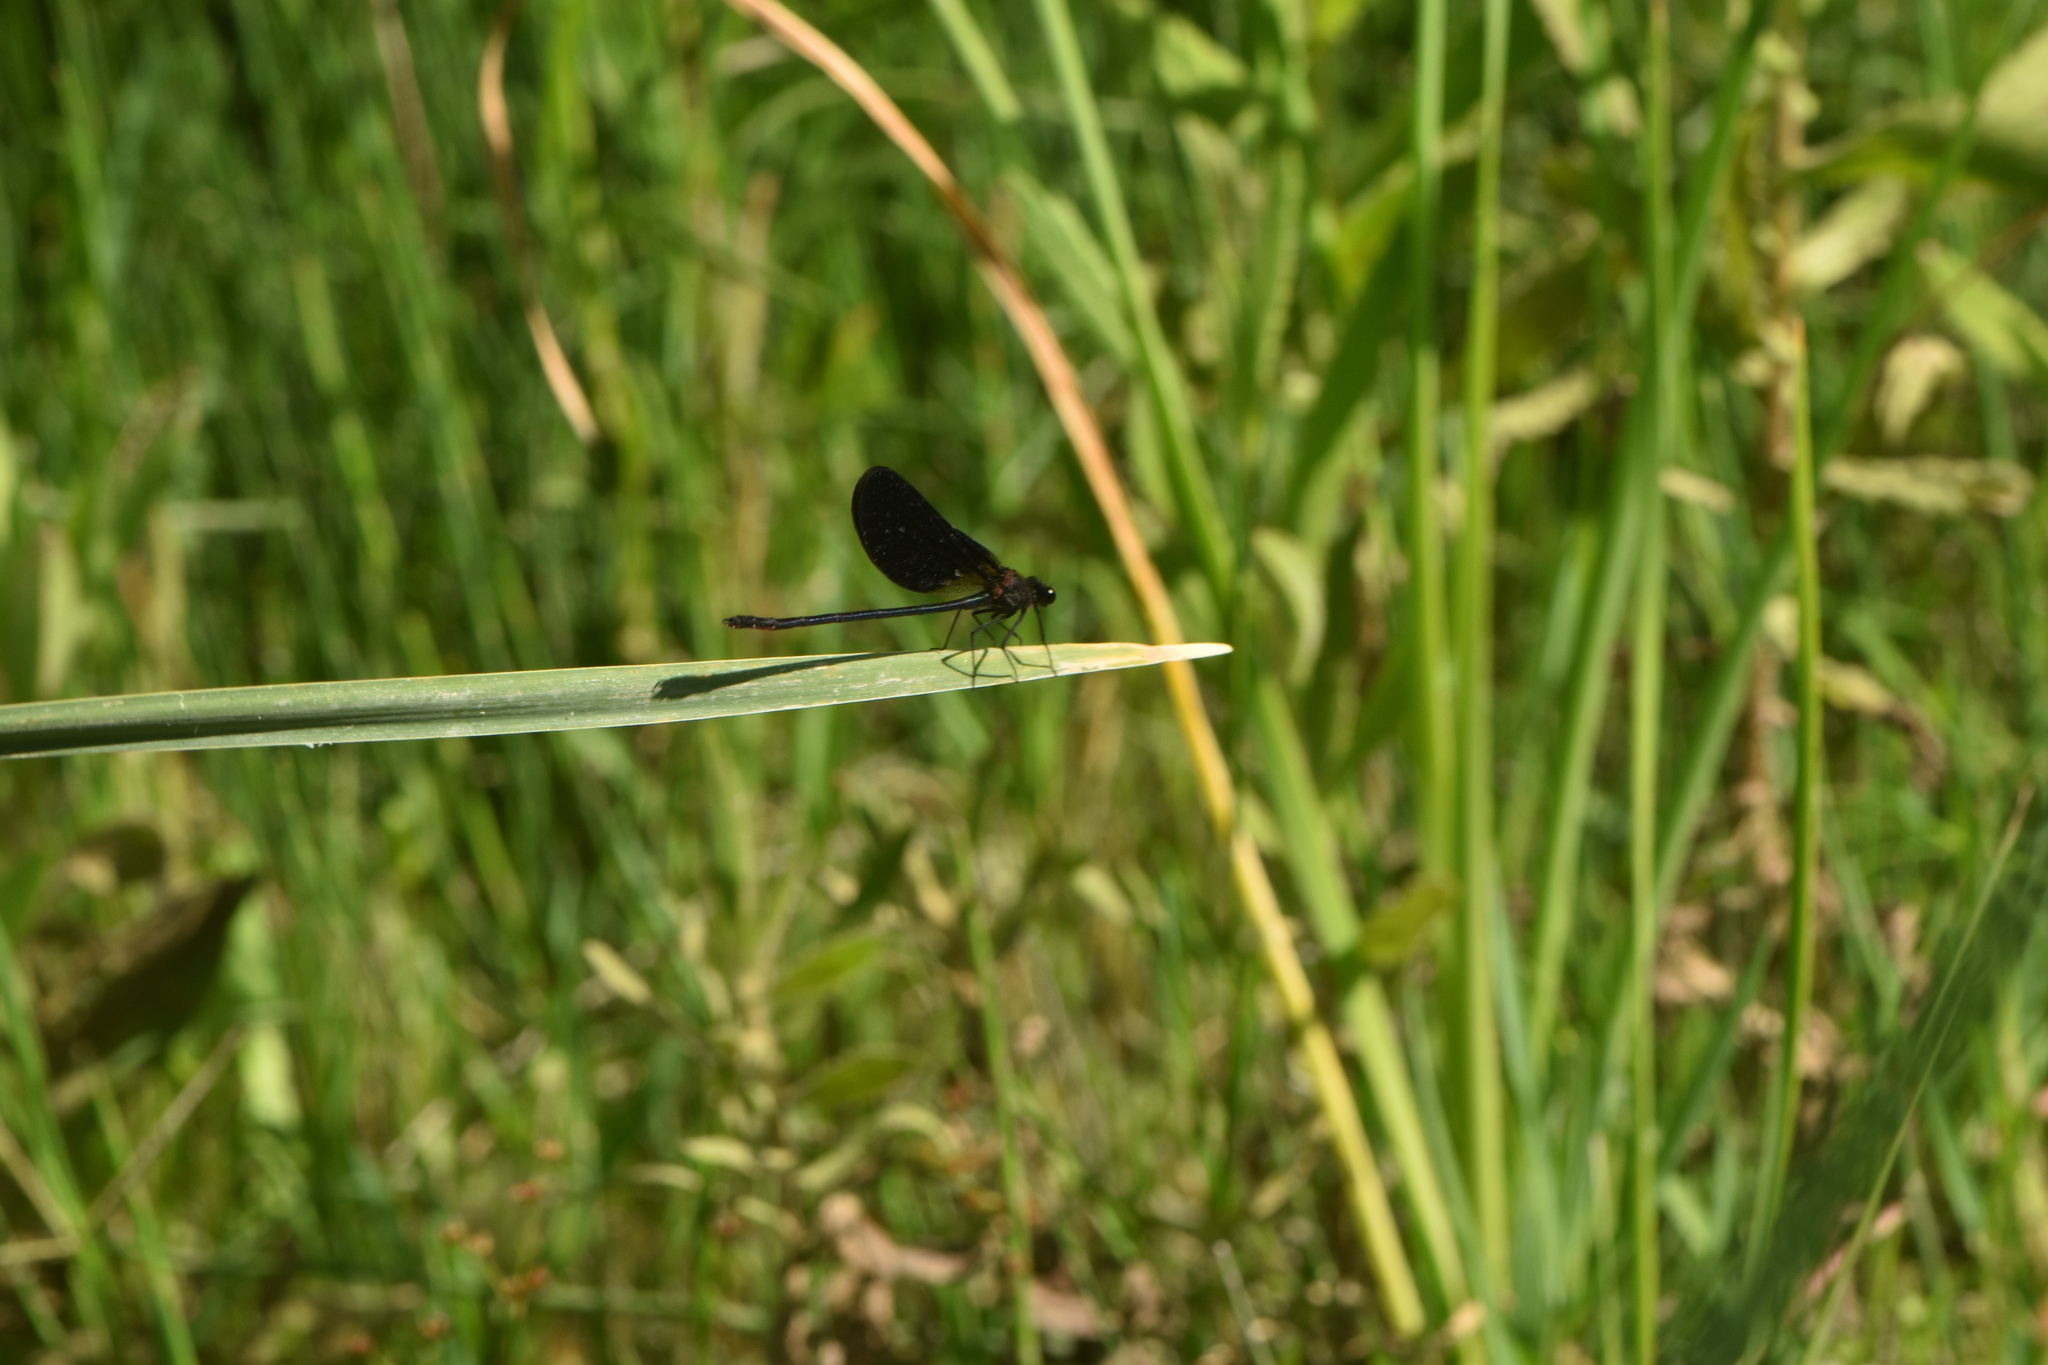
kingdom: Animalia
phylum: Arthropoda
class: Insecta
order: Odonata
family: Calopterygidae
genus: Calopteryx
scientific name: Calopteryx haemorrhoidalis
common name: Copper demoiselle
